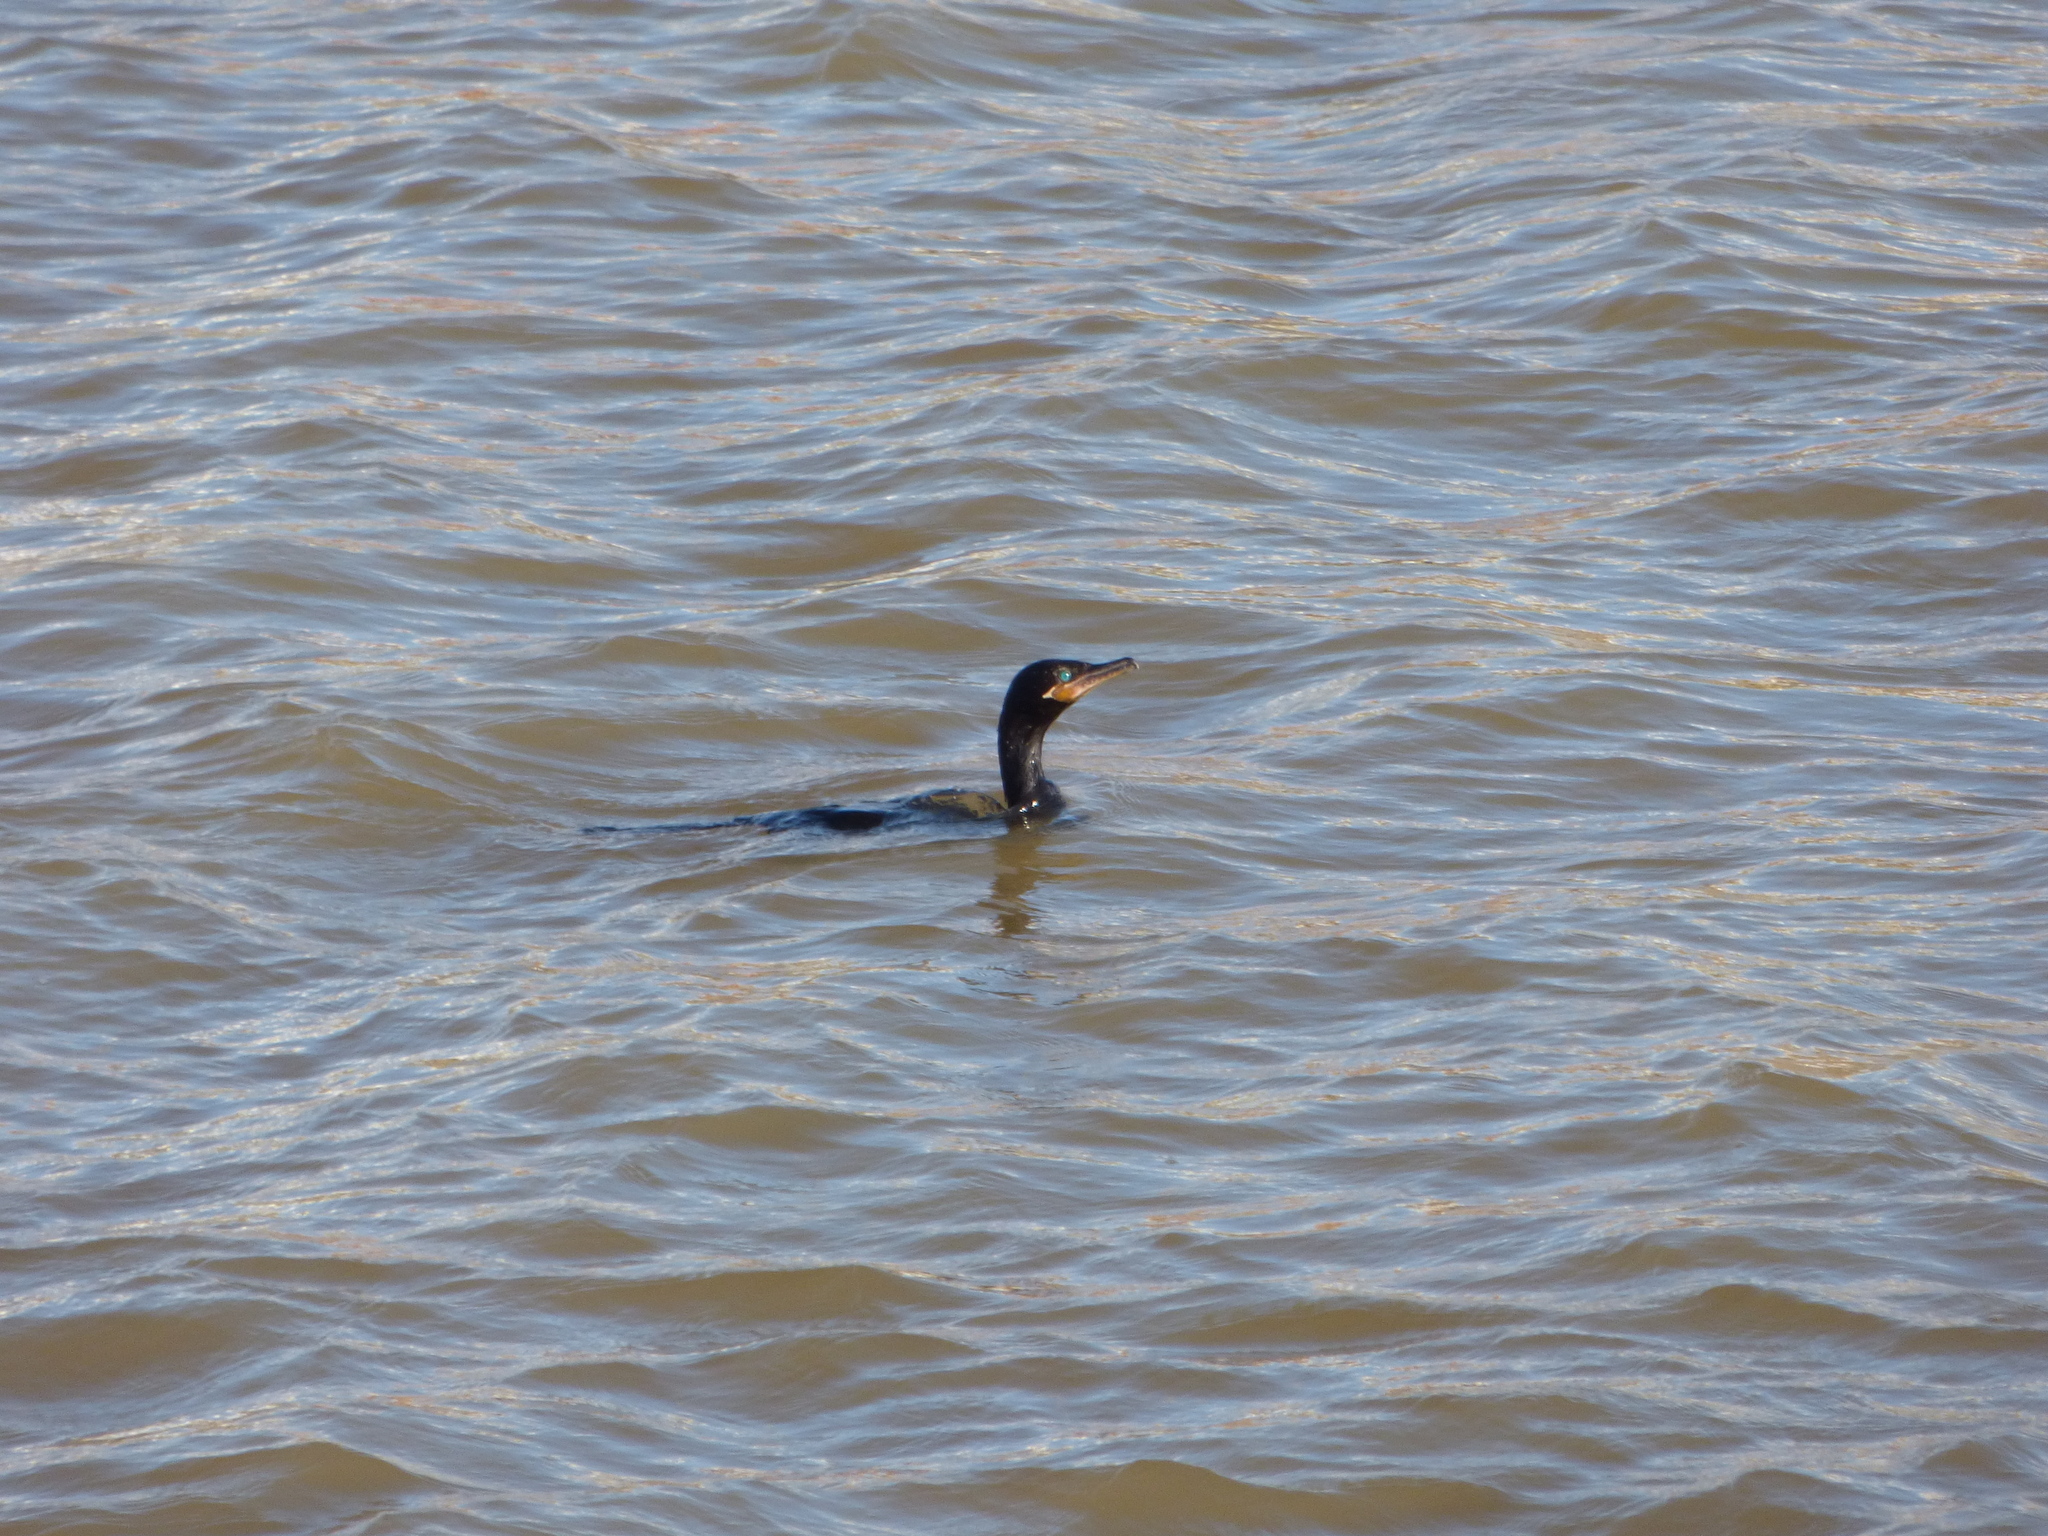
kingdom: Animalia
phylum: Chordata
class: Aves
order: Suliformes
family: Phalacrocoracidae
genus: Phalacrocorax
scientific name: Phalacrocorax brasilianus
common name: Neotropic cormorant
